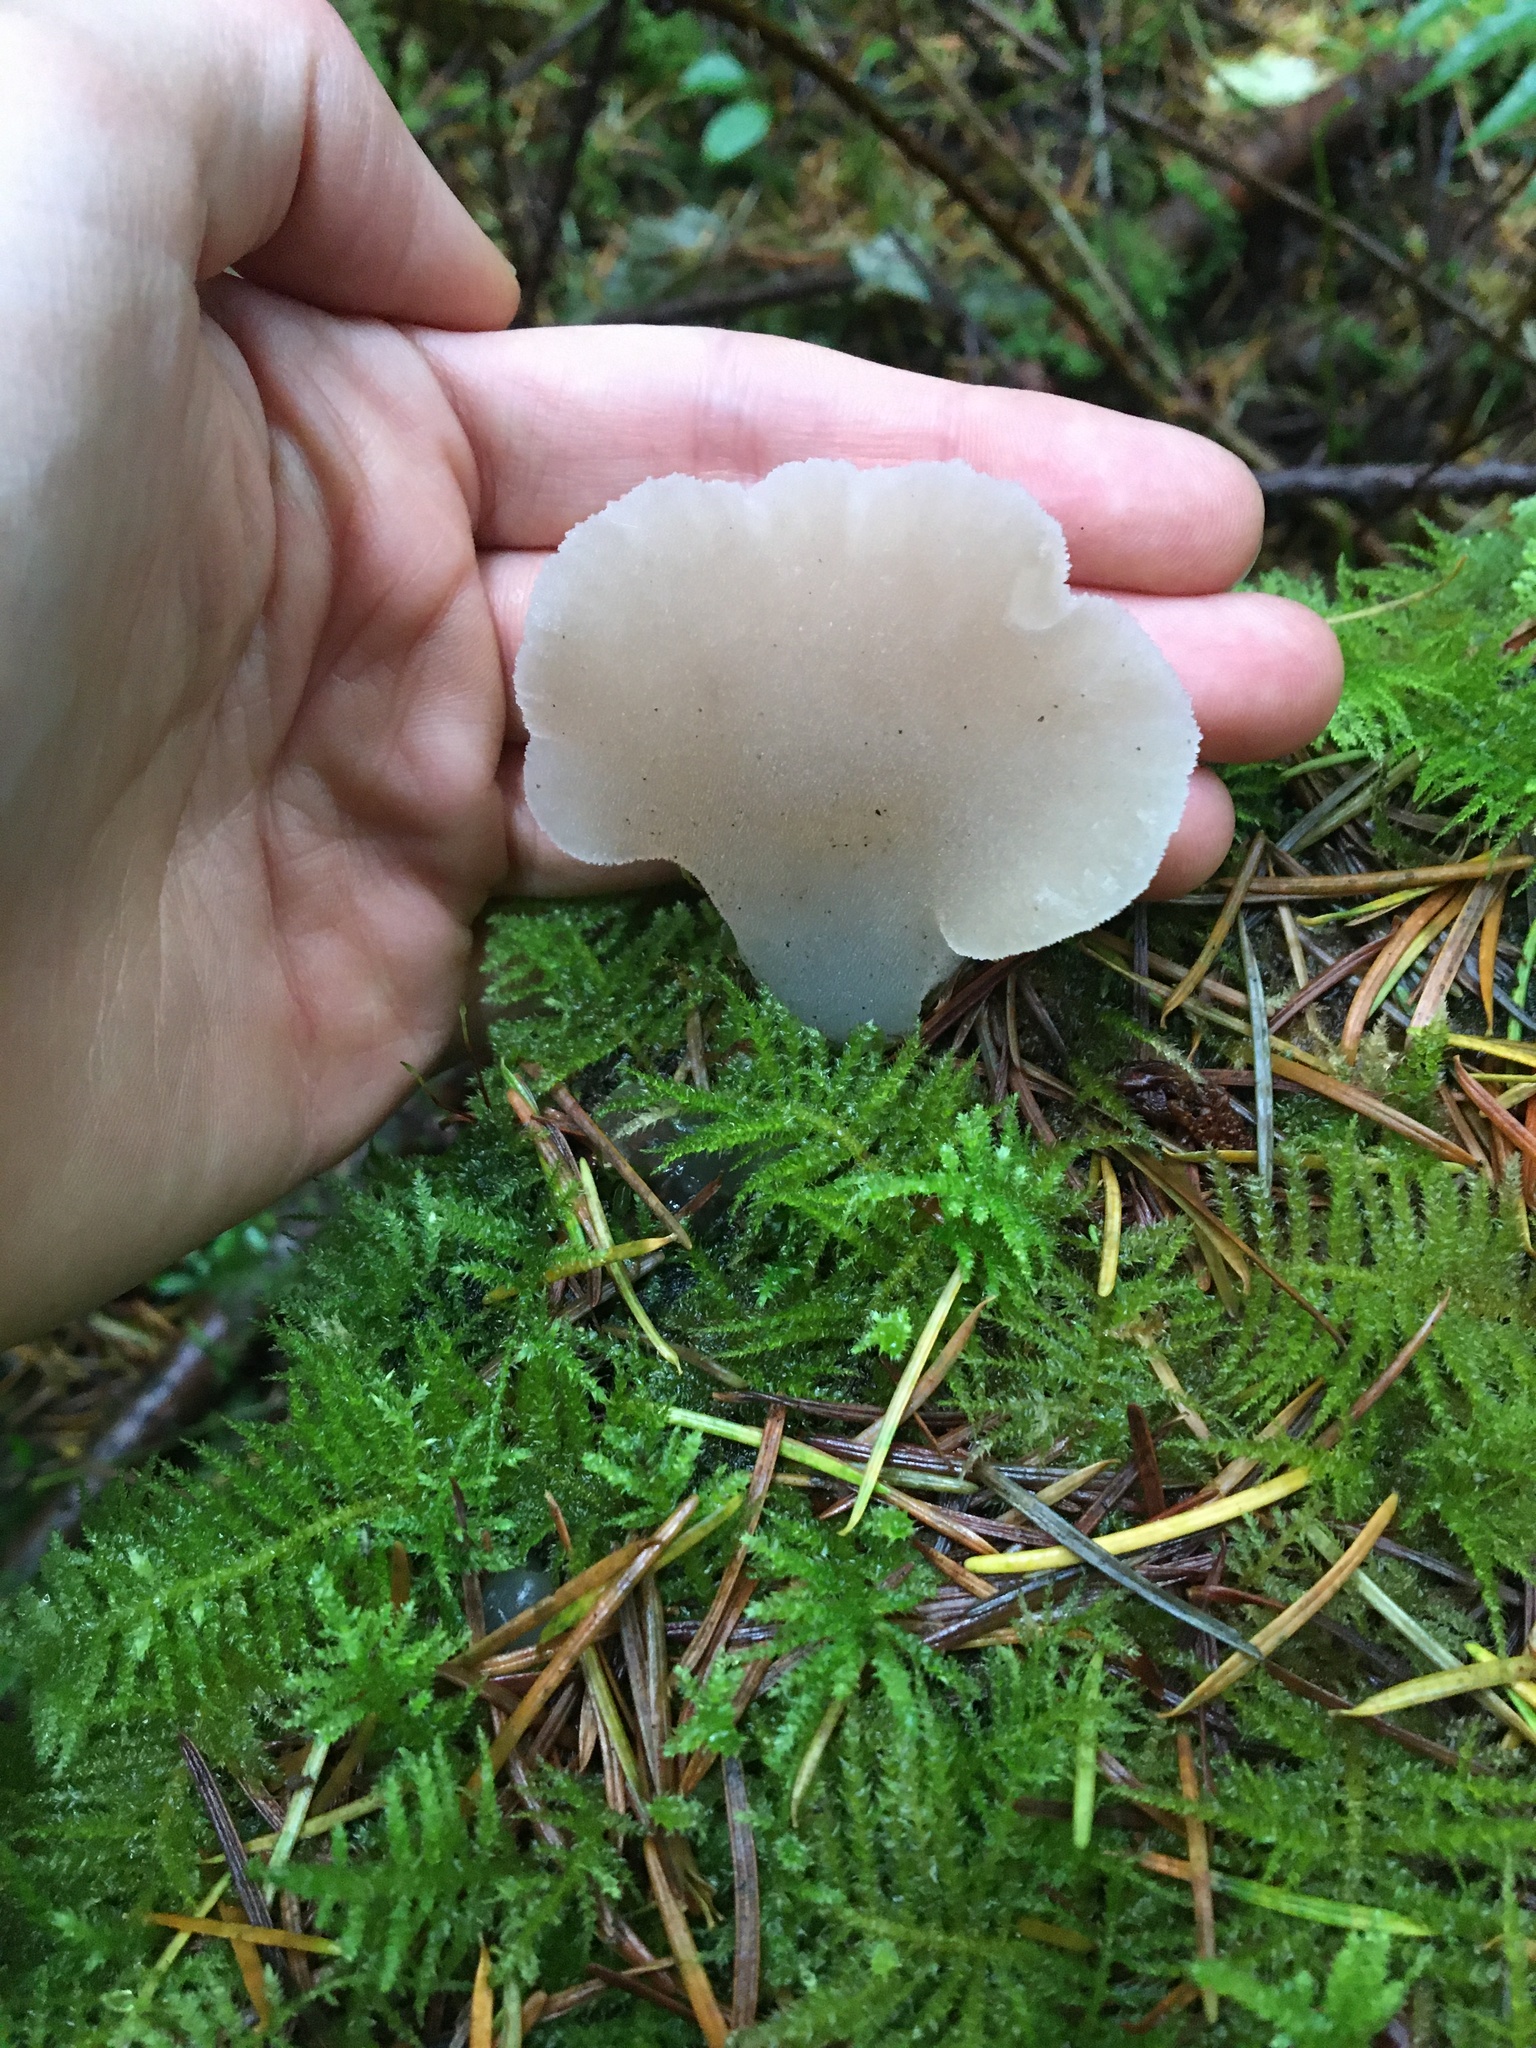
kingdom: Fungi
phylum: Basidiomycota
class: Agaricomycetes
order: Auriculariales
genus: Pseudohydnum
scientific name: Pseudohydnum gelatinosum
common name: Jelly tongue
